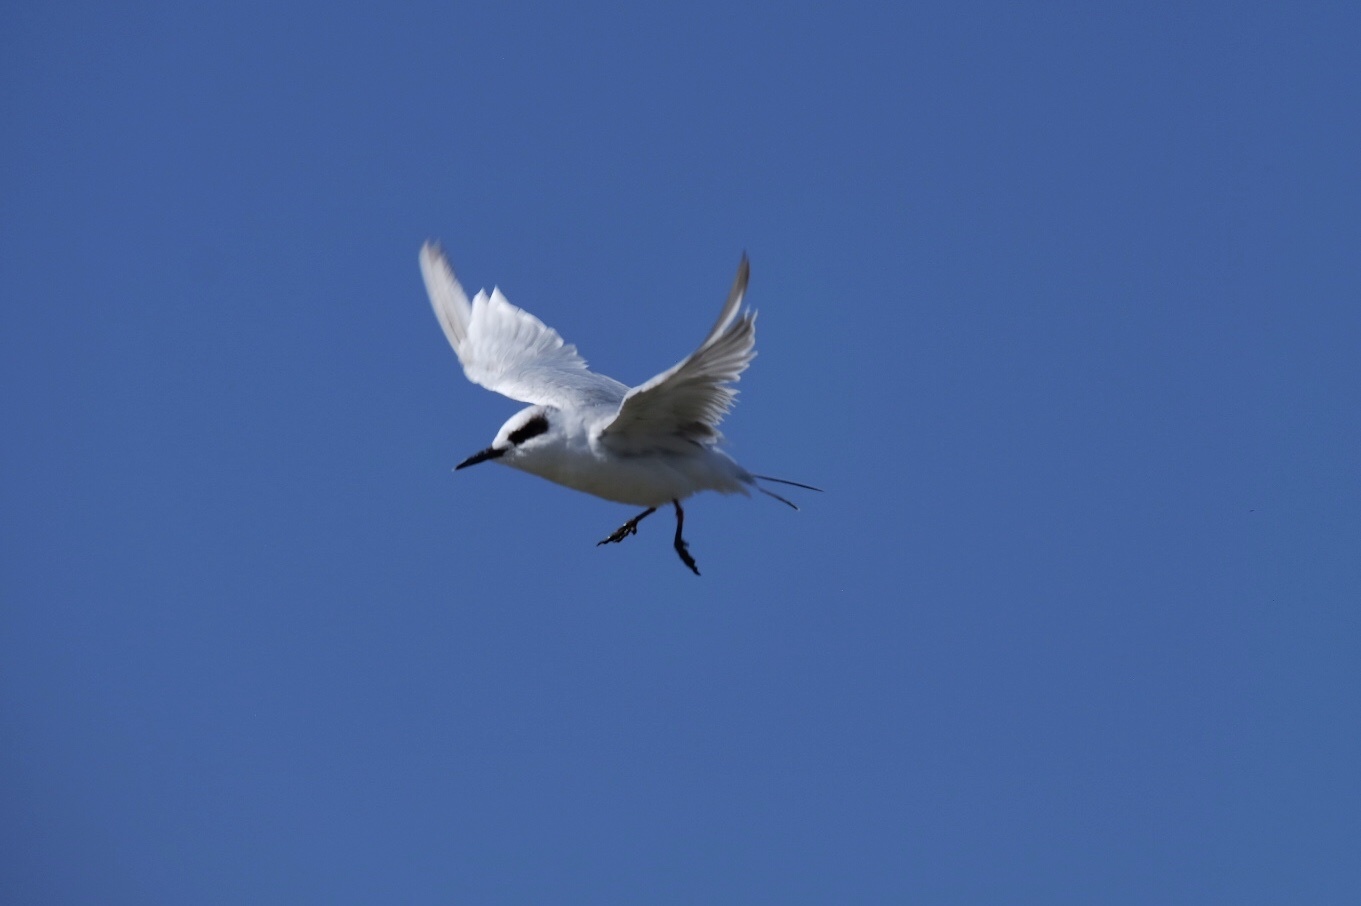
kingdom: Animalia
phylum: Chordata
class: Aves
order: Charadriiformes
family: Laridae
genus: Sterna
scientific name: Sterna forsteri
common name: Forster's tern
